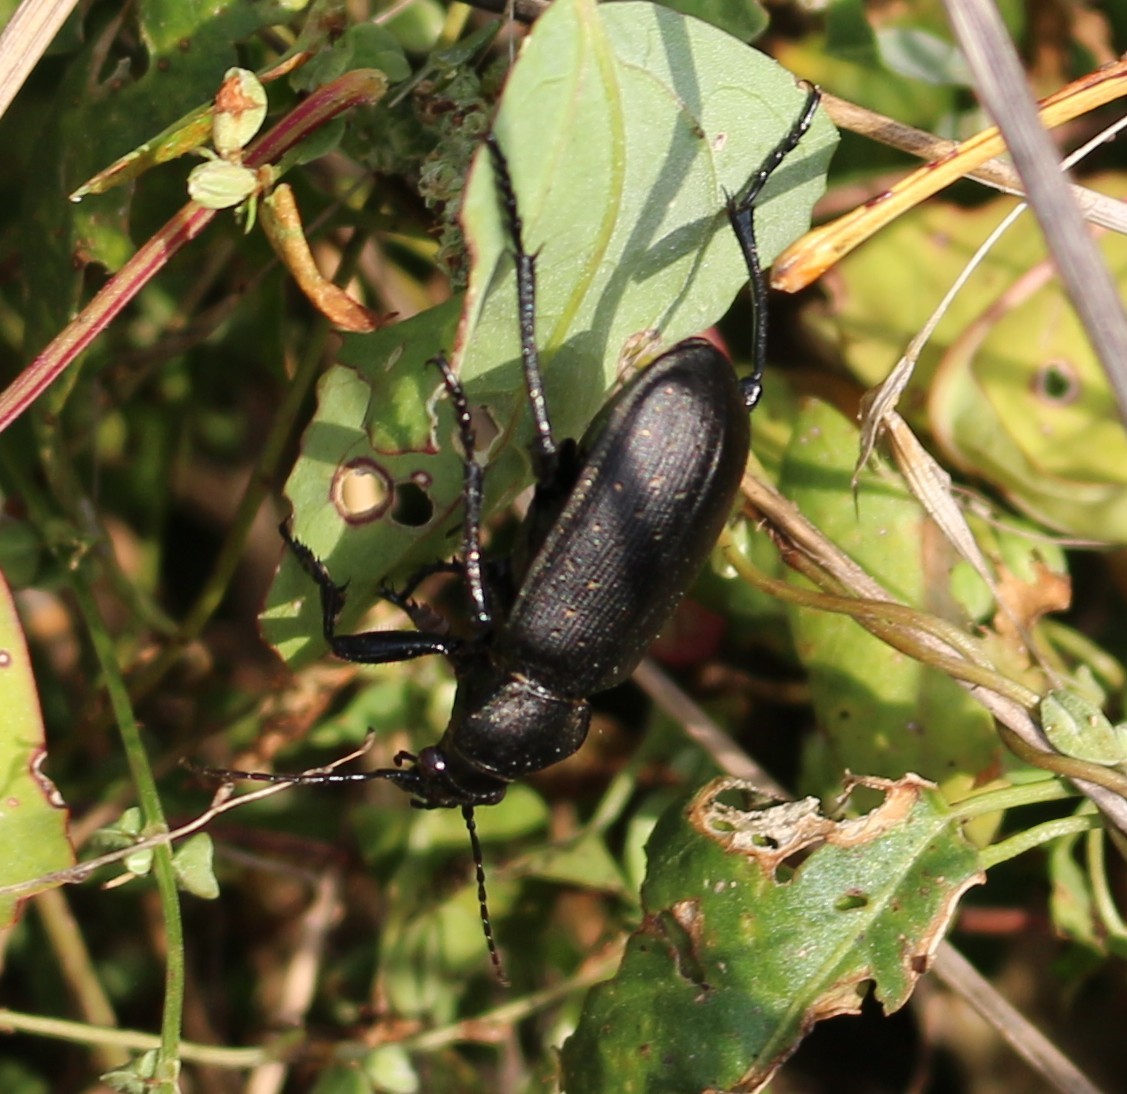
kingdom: Animalia
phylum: Arthropoda
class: Insecta
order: Coleoptera
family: Carabidae
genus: Calosoma
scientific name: Calosoma maderae
